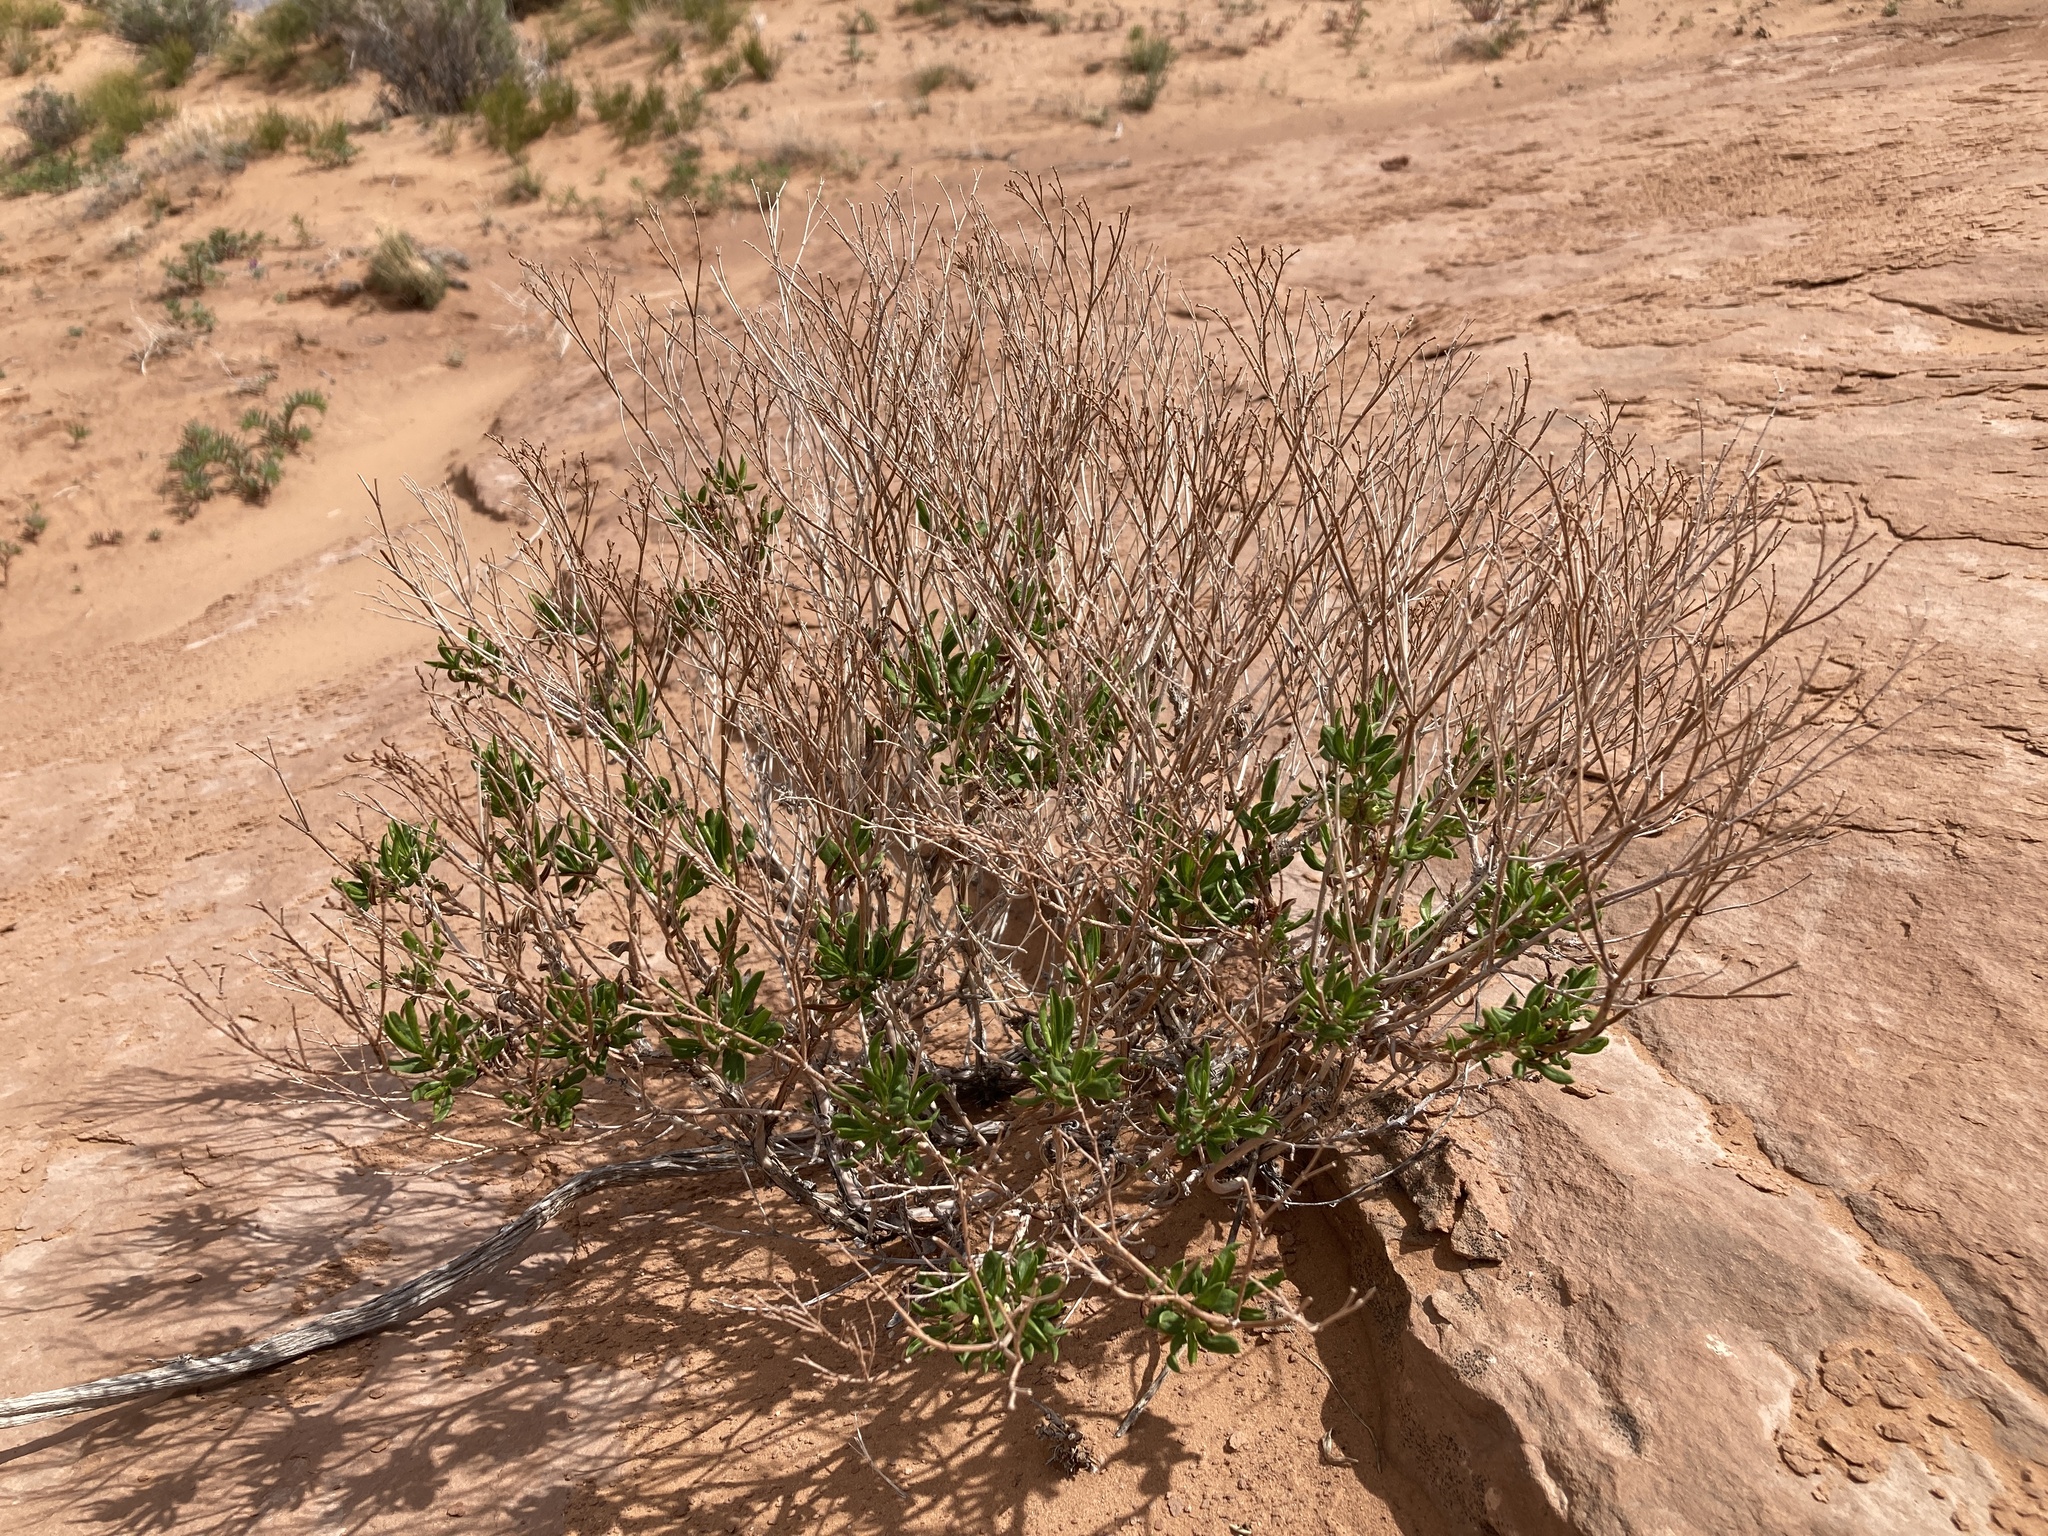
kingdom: Plantae
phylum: Tracheophyta
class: Magnoliopsida
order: Caryophyllales
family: Polygonaceae
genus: Eriogonum
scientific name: Eriogonum smithii
